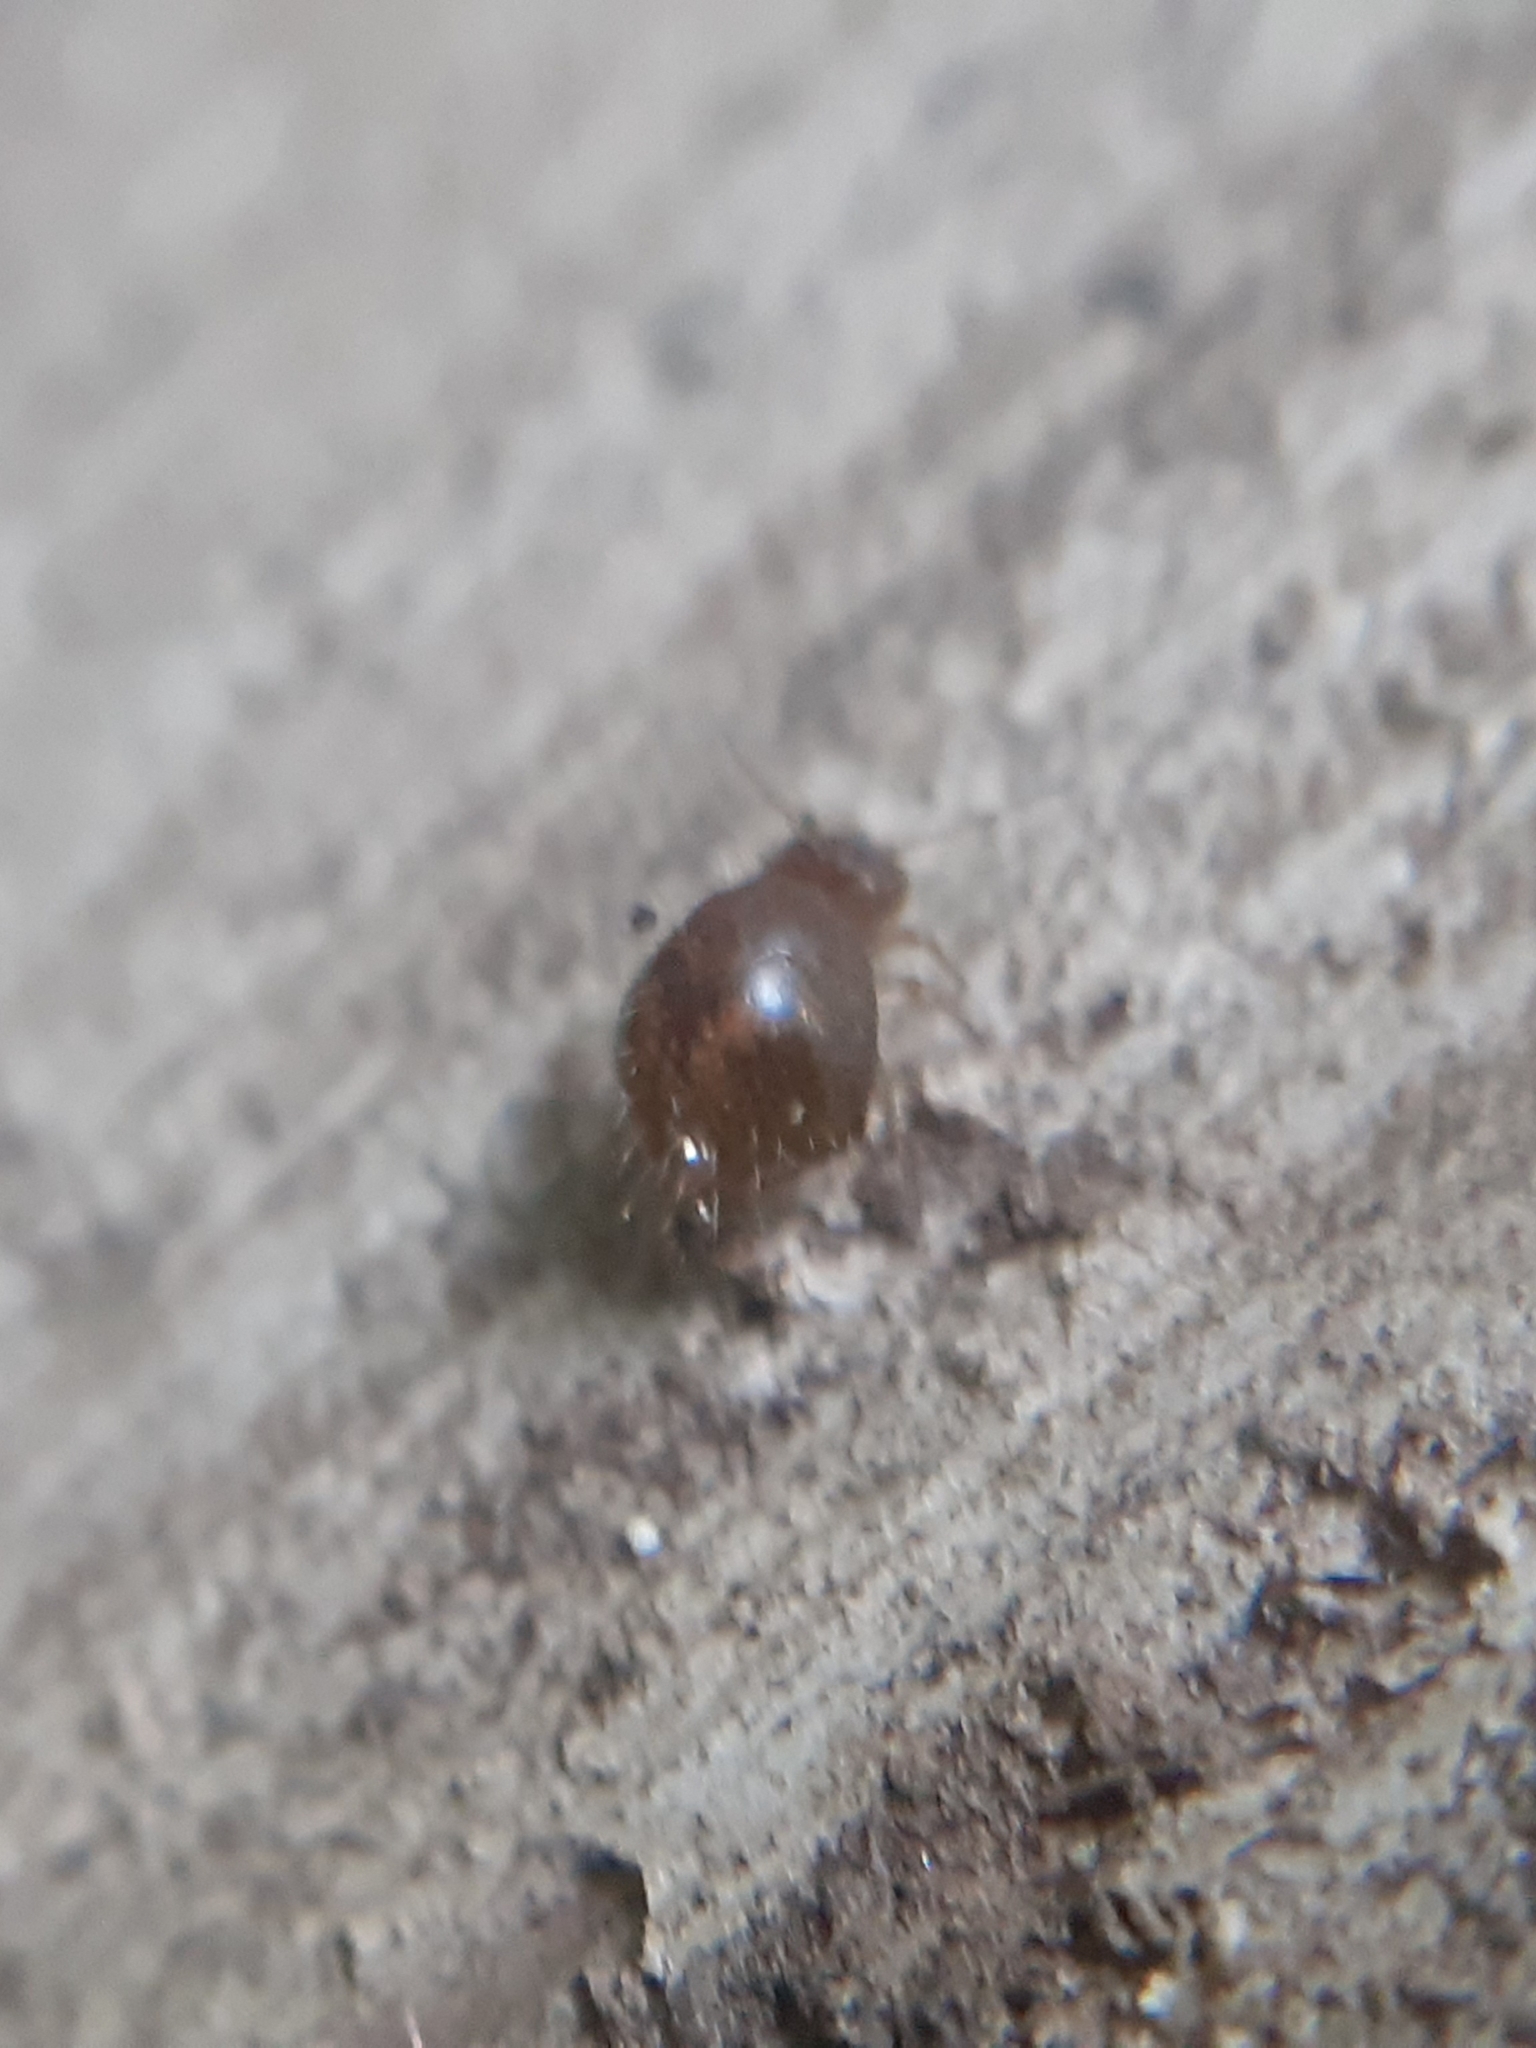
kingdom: Animalia
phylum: Arthropoda
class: Collembola
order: Symphypleona
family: Sminthuridae
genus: Allacma
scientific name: Allacma fusca
